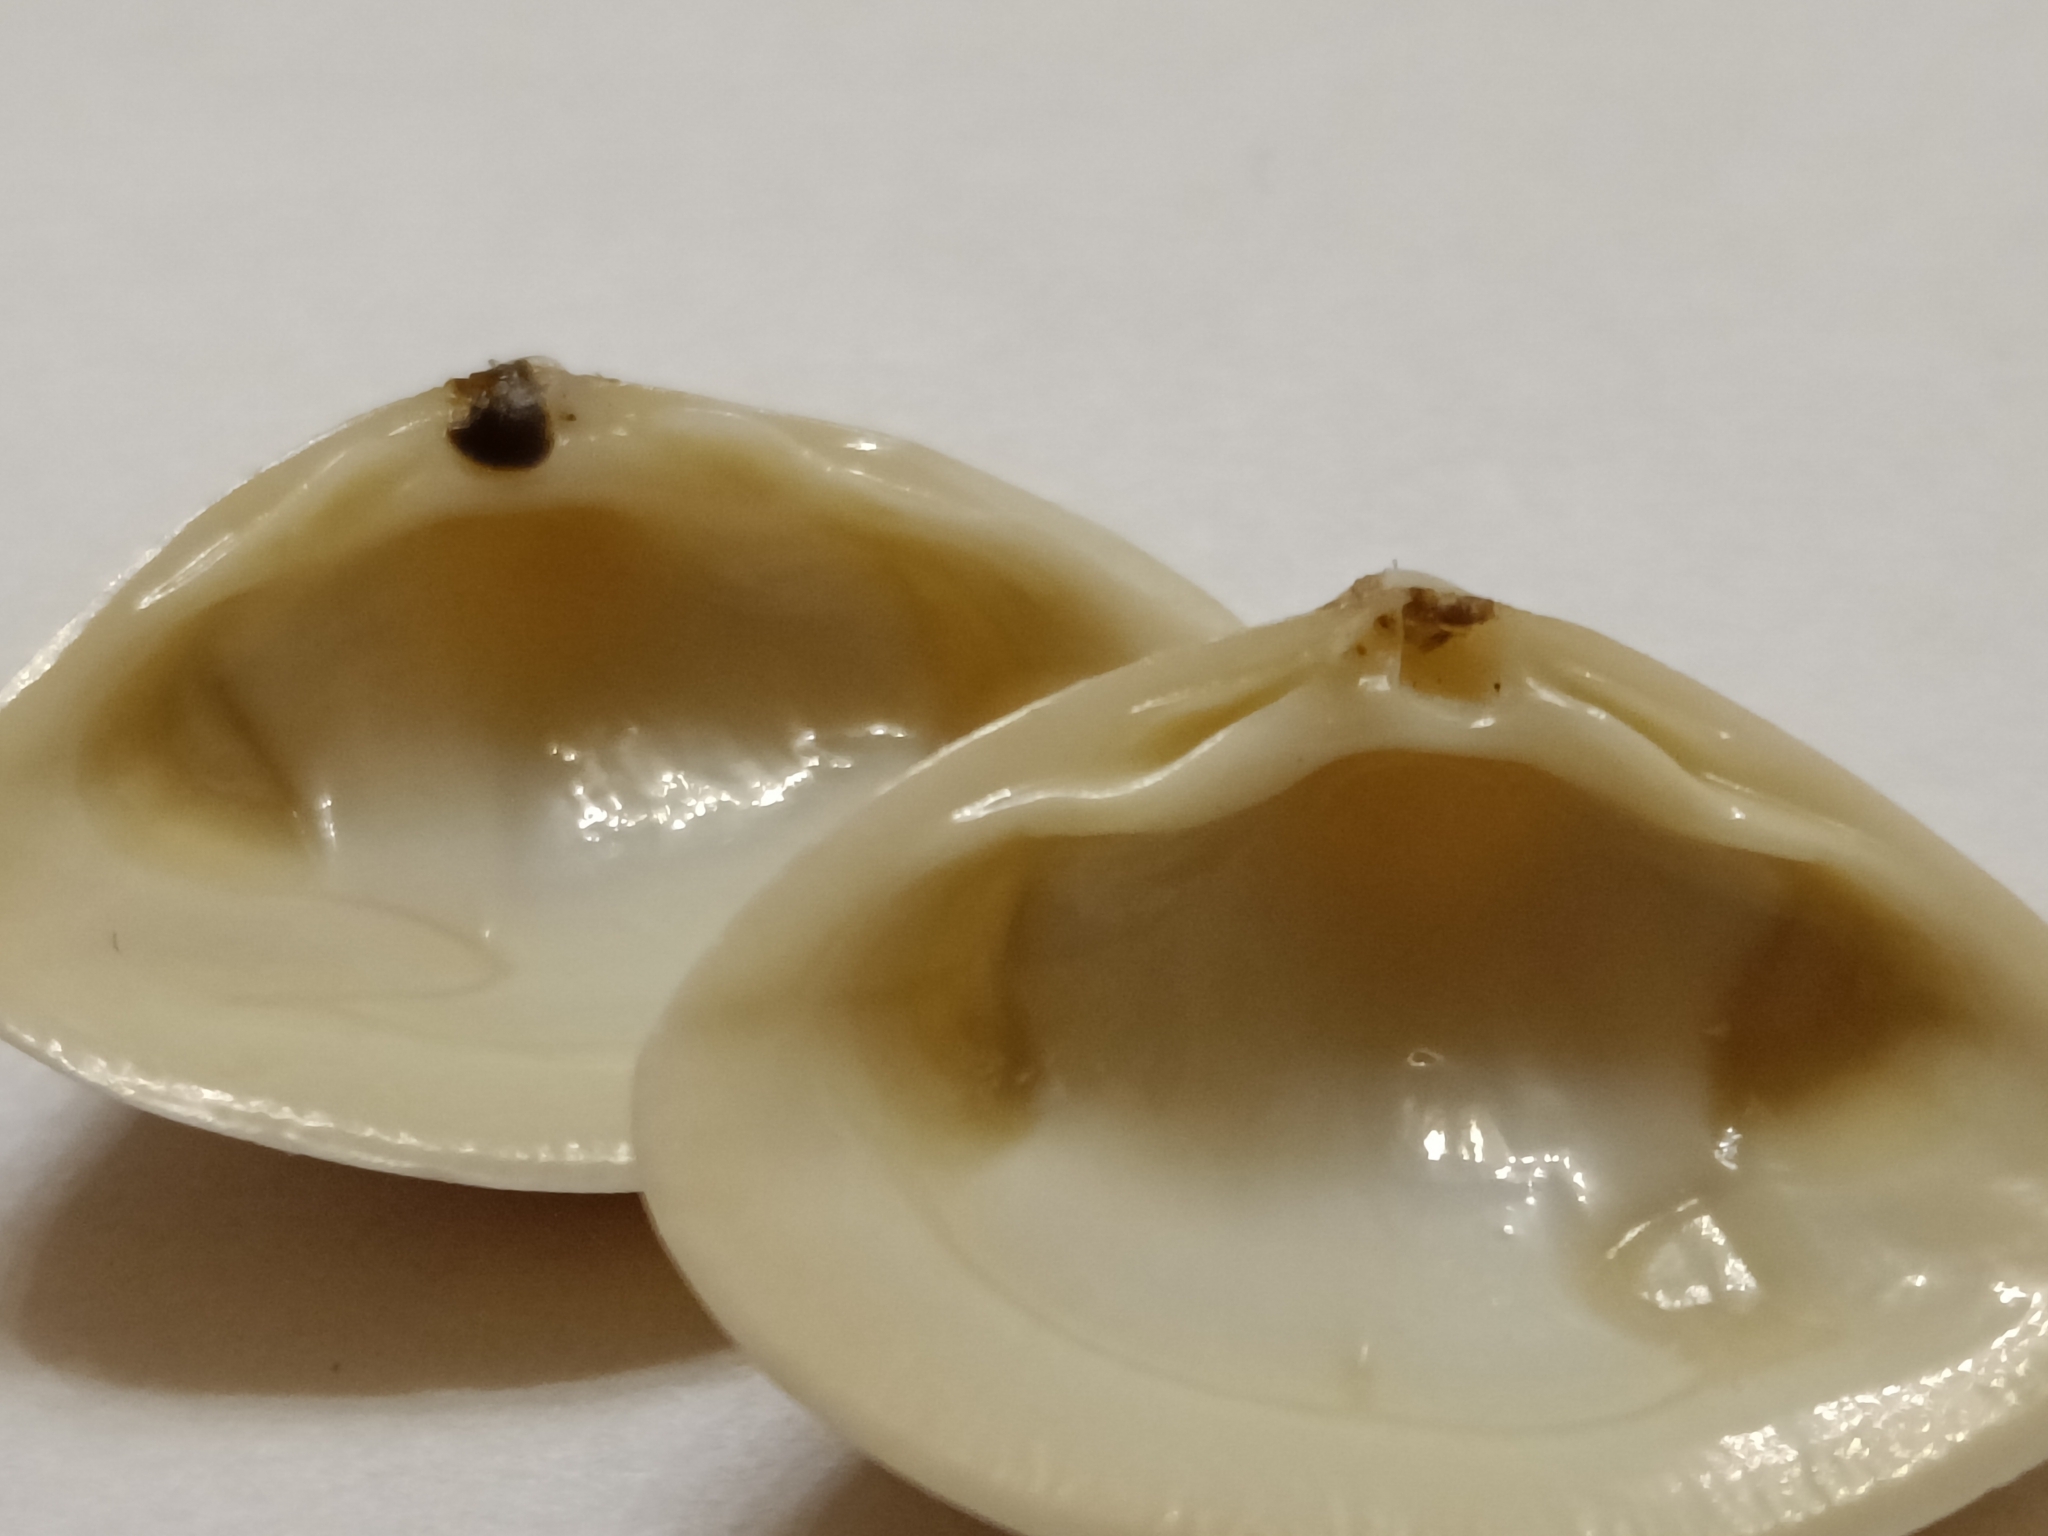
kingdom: Animalia
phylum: Mollusca
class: Bivalvia
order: Venerida
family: Mactridae
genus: Spisula
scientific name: Spisula solida
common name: Thick trough shell
